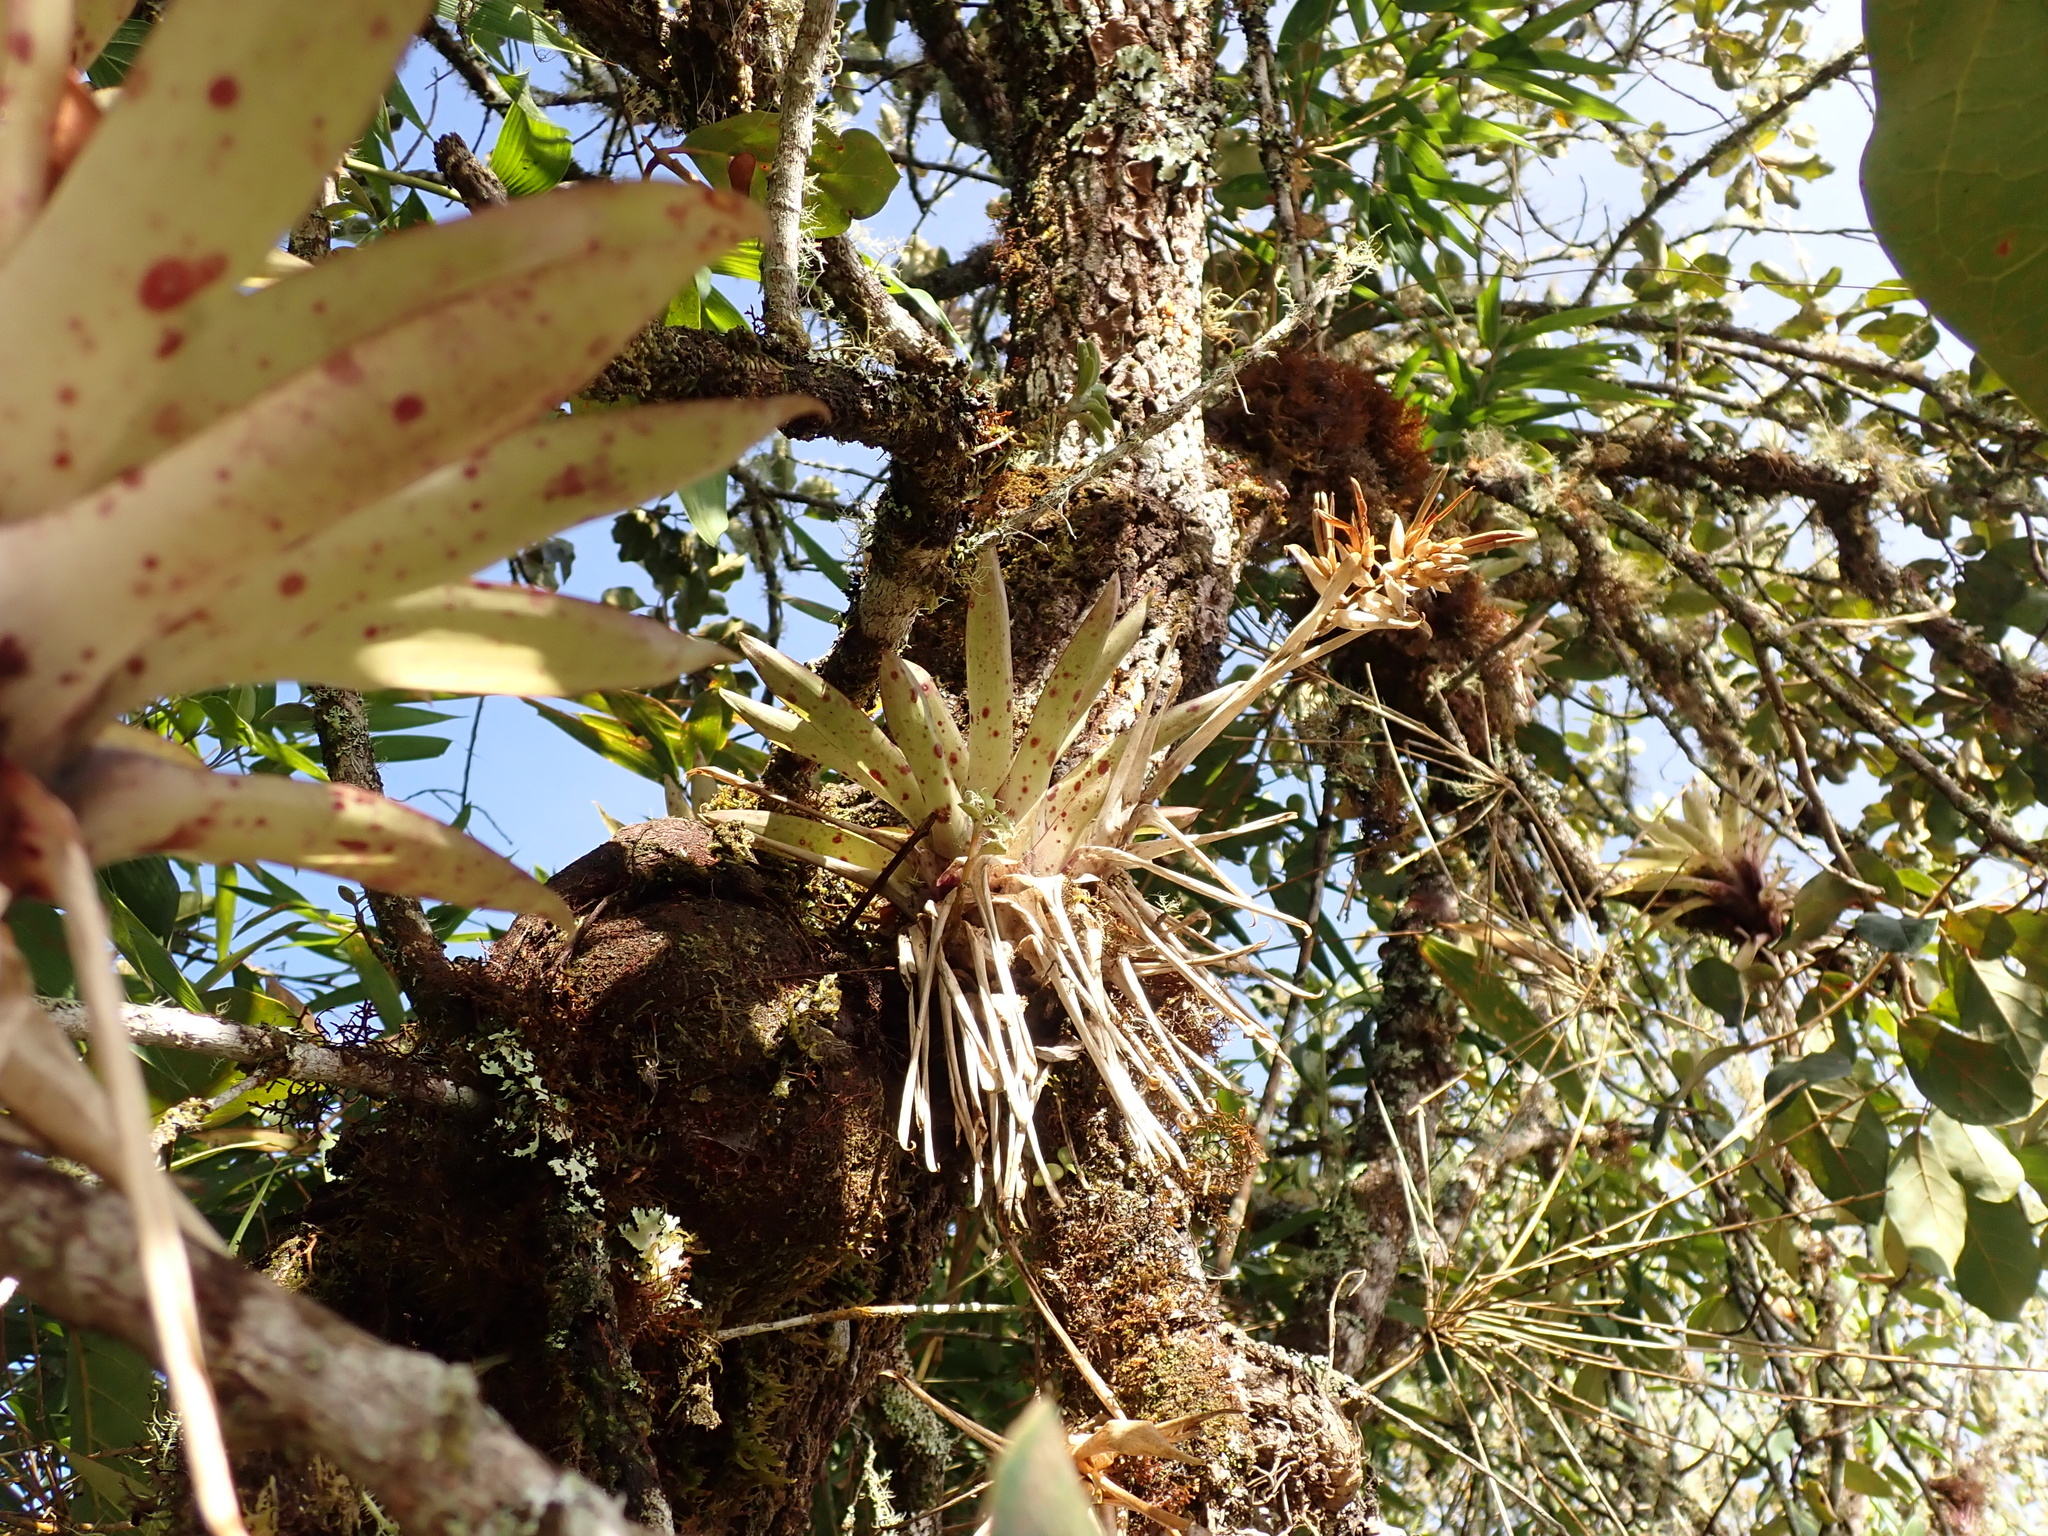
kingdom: Plantae
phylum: Tracheophyta
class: Liliopsida
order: Poales
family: Bromeliaceae
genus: Tillandsia
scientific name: Tillandsia biflora
